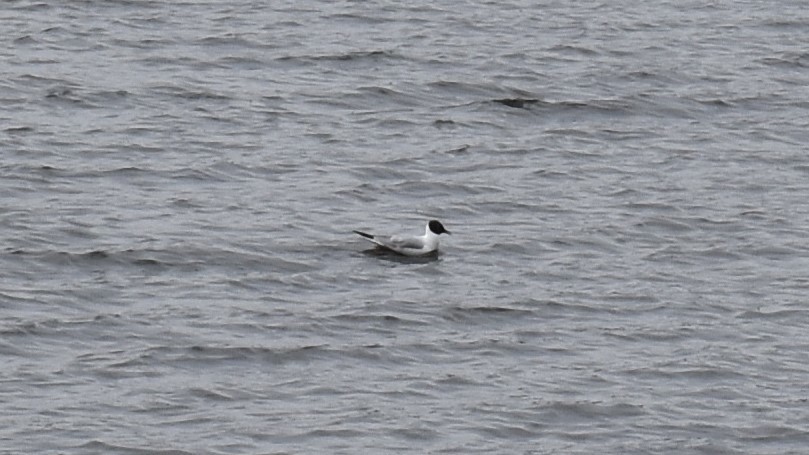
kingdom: Animalia
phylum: Chordata
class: Aves
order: Charadriiformes
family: Laridae
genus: Chroicocephalus
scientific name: Chroicocephalus philadelphia
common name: Bonaparte's gull
